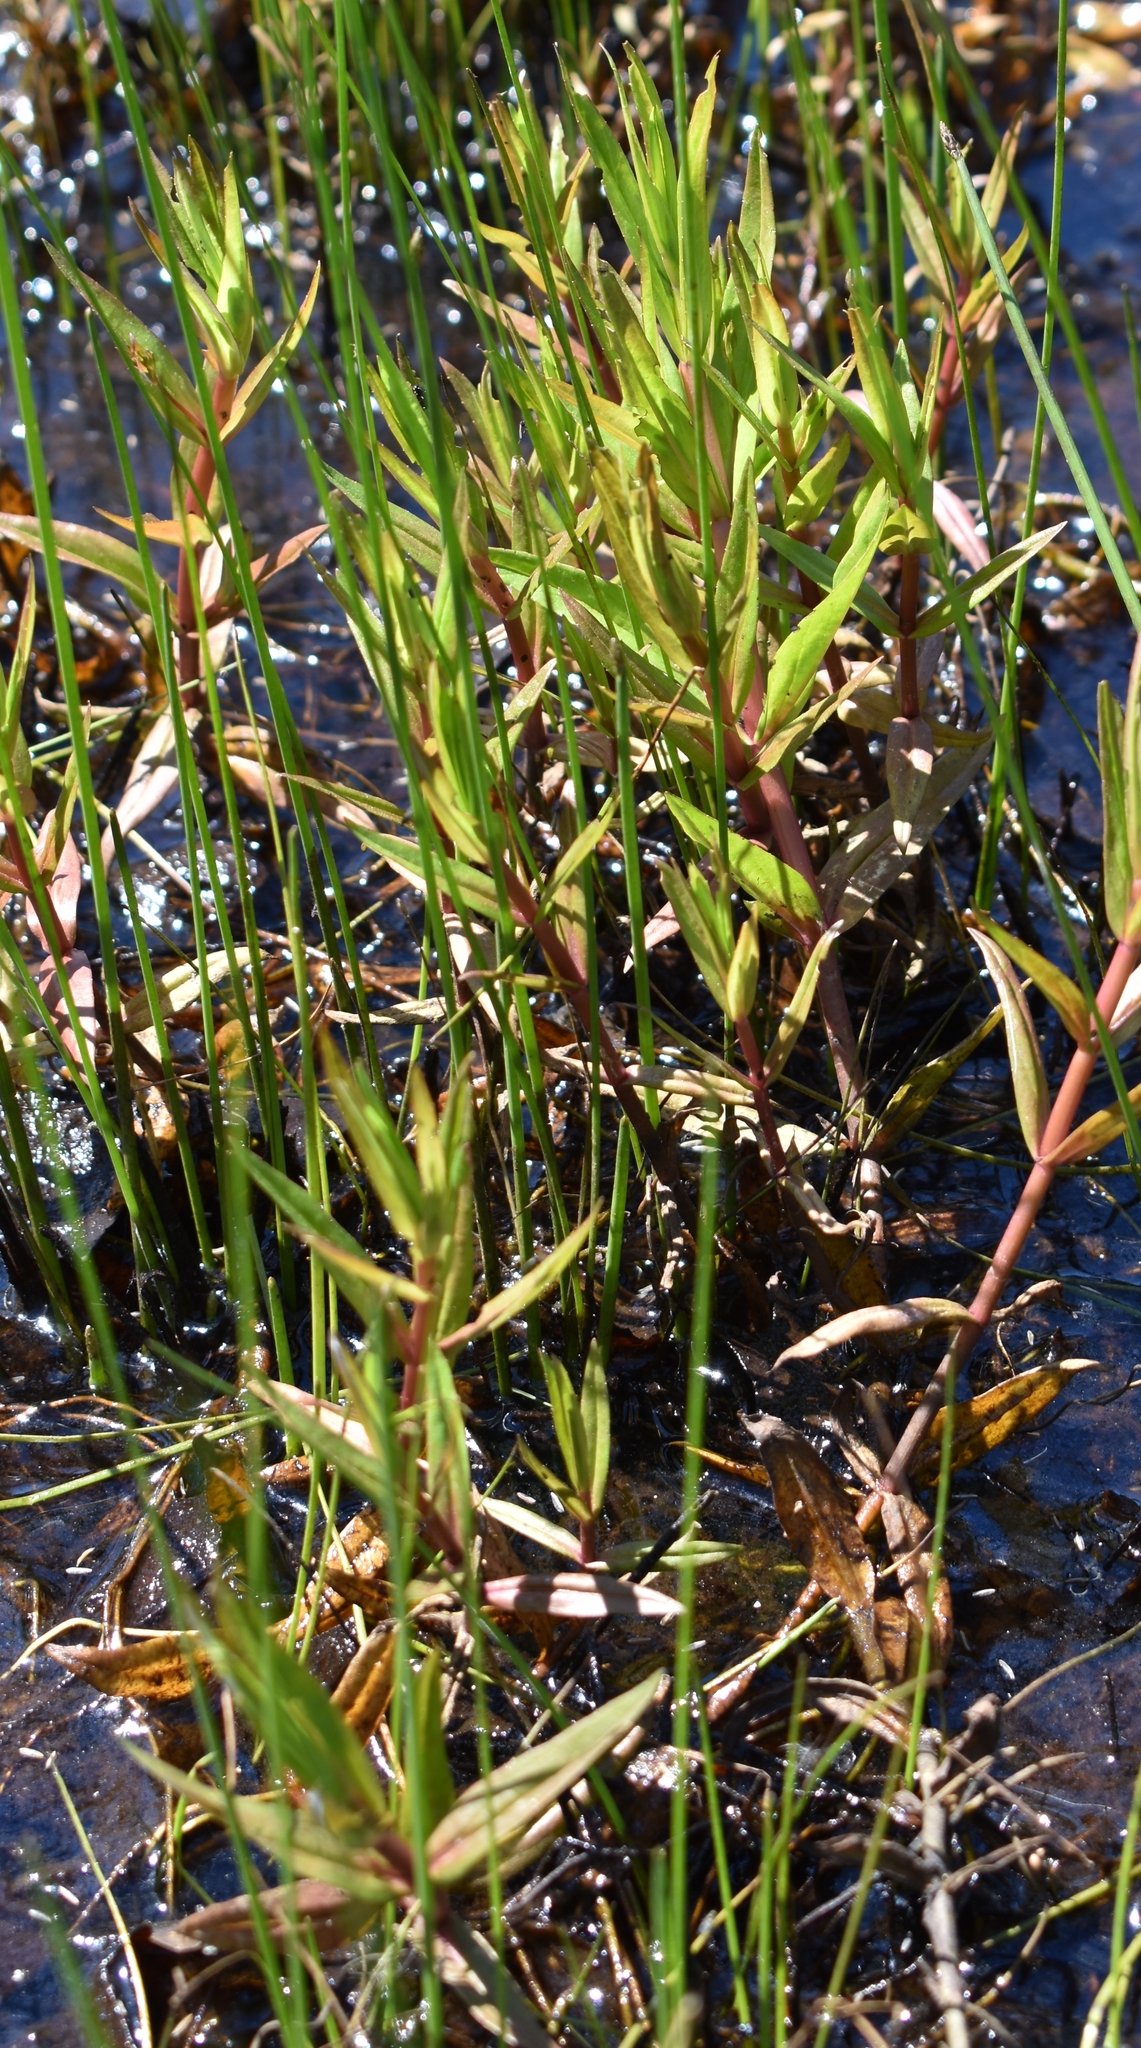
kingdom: Plantae
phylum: Tracheophyta
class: Magnoliopsida
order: Lamiales
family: Plantaginaceae
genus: Gratiola
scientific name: Gratiola ebracteata
